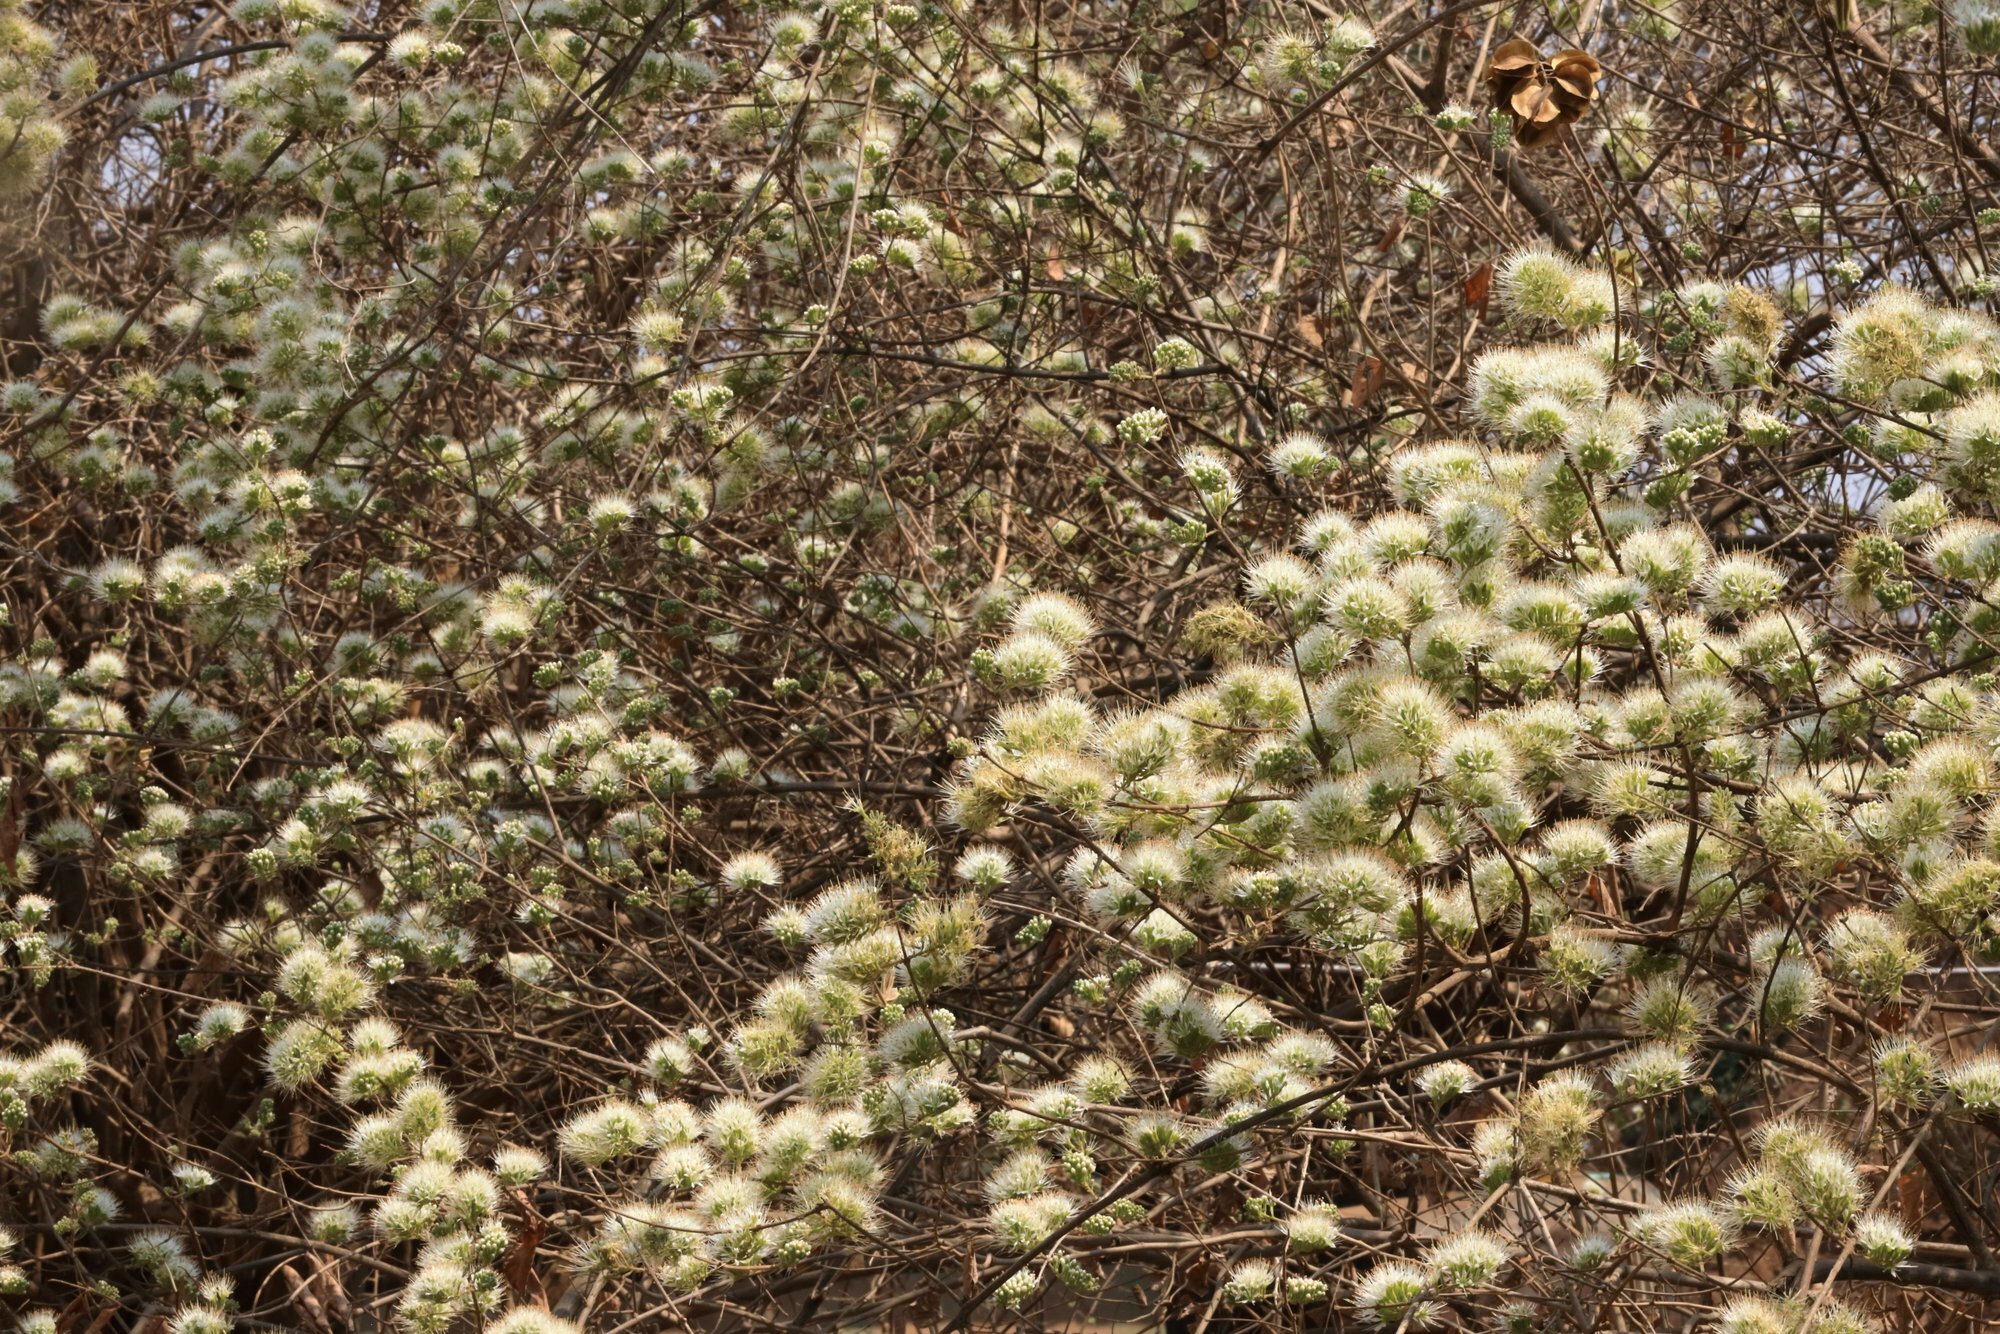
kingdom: Plantae
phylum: Tracheophyta
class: Magnoliopsida
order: Myrtales
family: Combretaceae
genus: Combretum
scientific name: Combretum mossambicense
